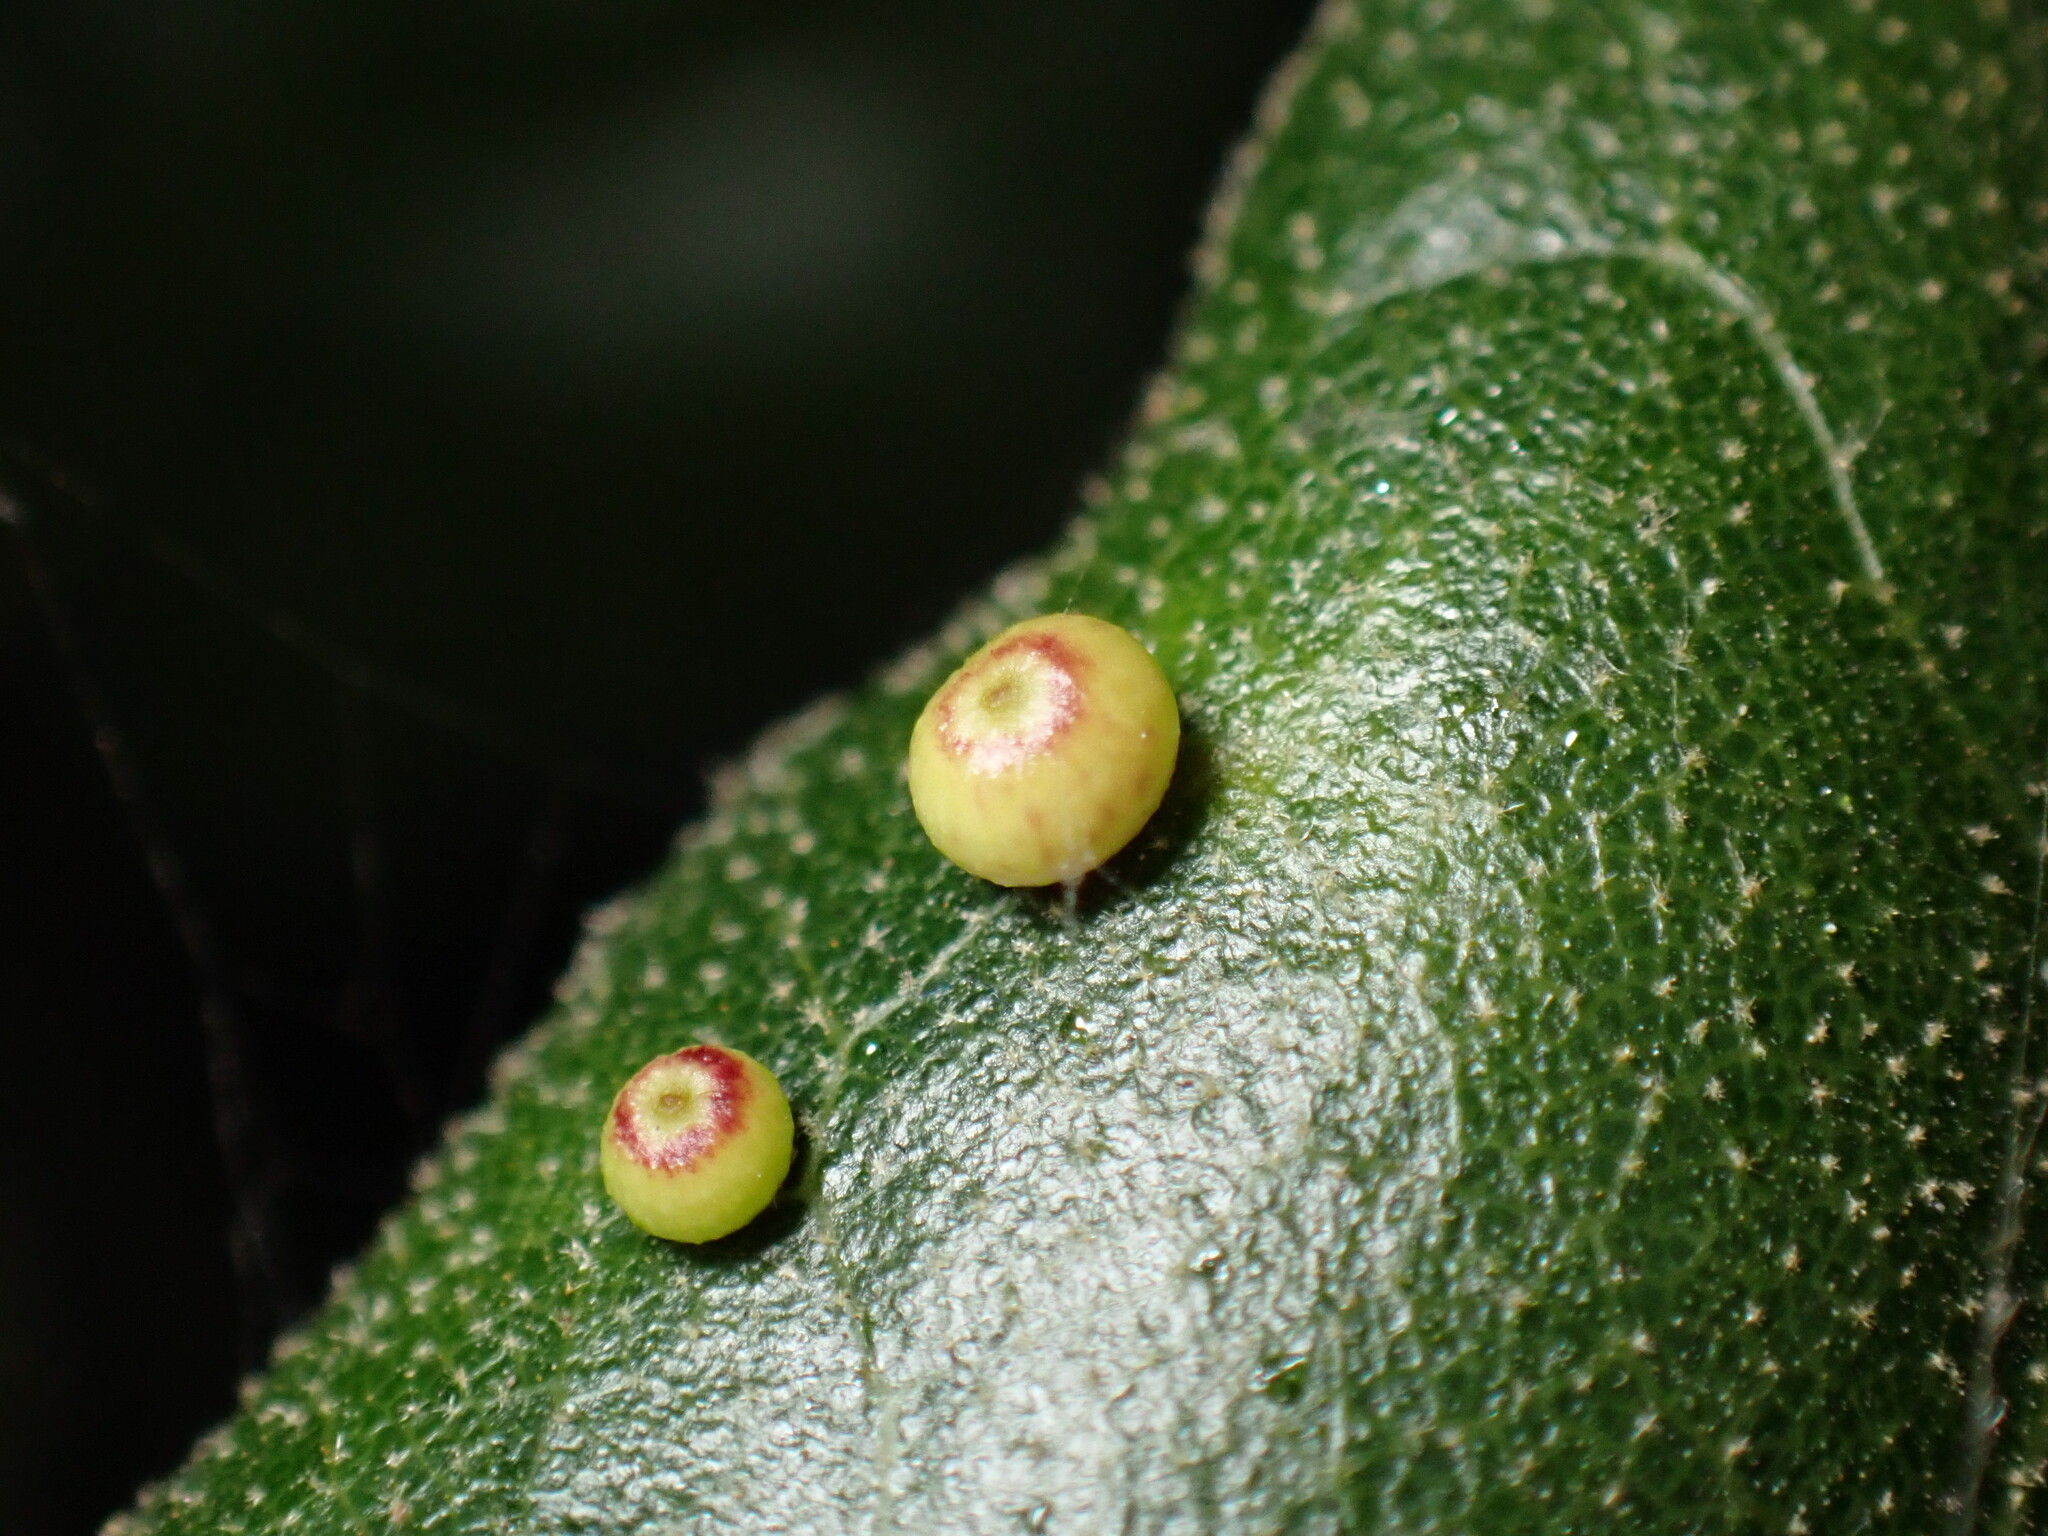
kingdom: Animalia
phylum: Arthropoda
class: Insecta
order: Hymenoptera
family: Cynipidae
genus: Dryocosmus
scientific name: Dryocosmus
